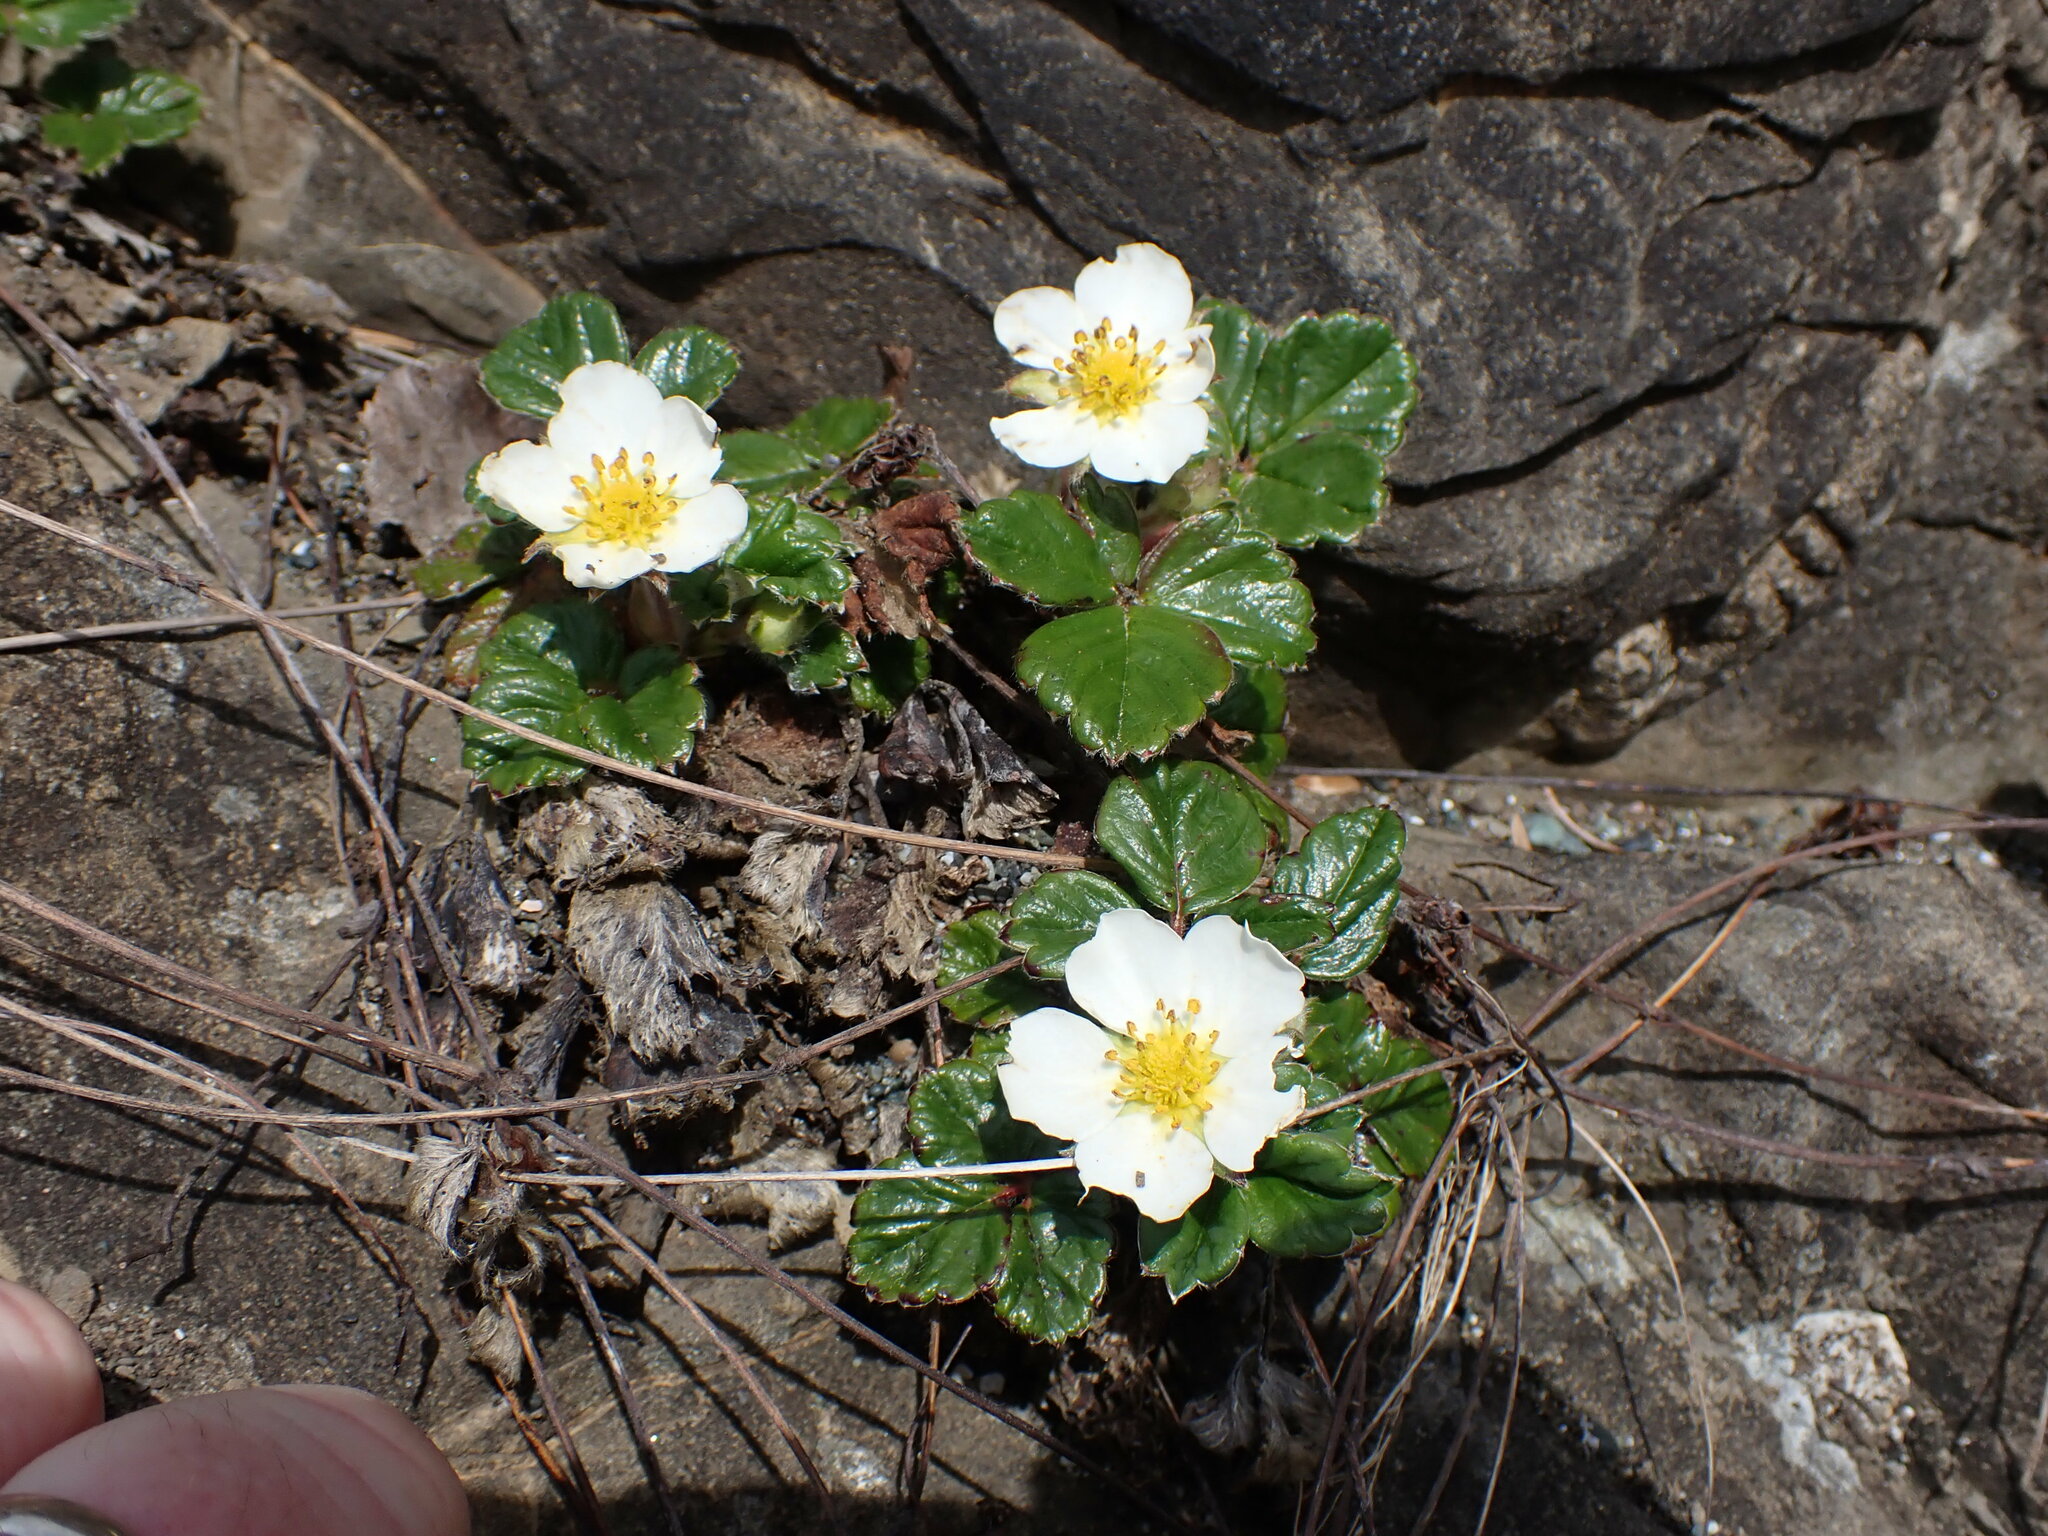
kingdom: Plantae
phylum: Tracheophyta
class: Magnoliopsida
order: Rosales
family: Rosaceae
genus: Fragaria
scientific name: Fragaria chiloensis
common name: Beach strawberry
